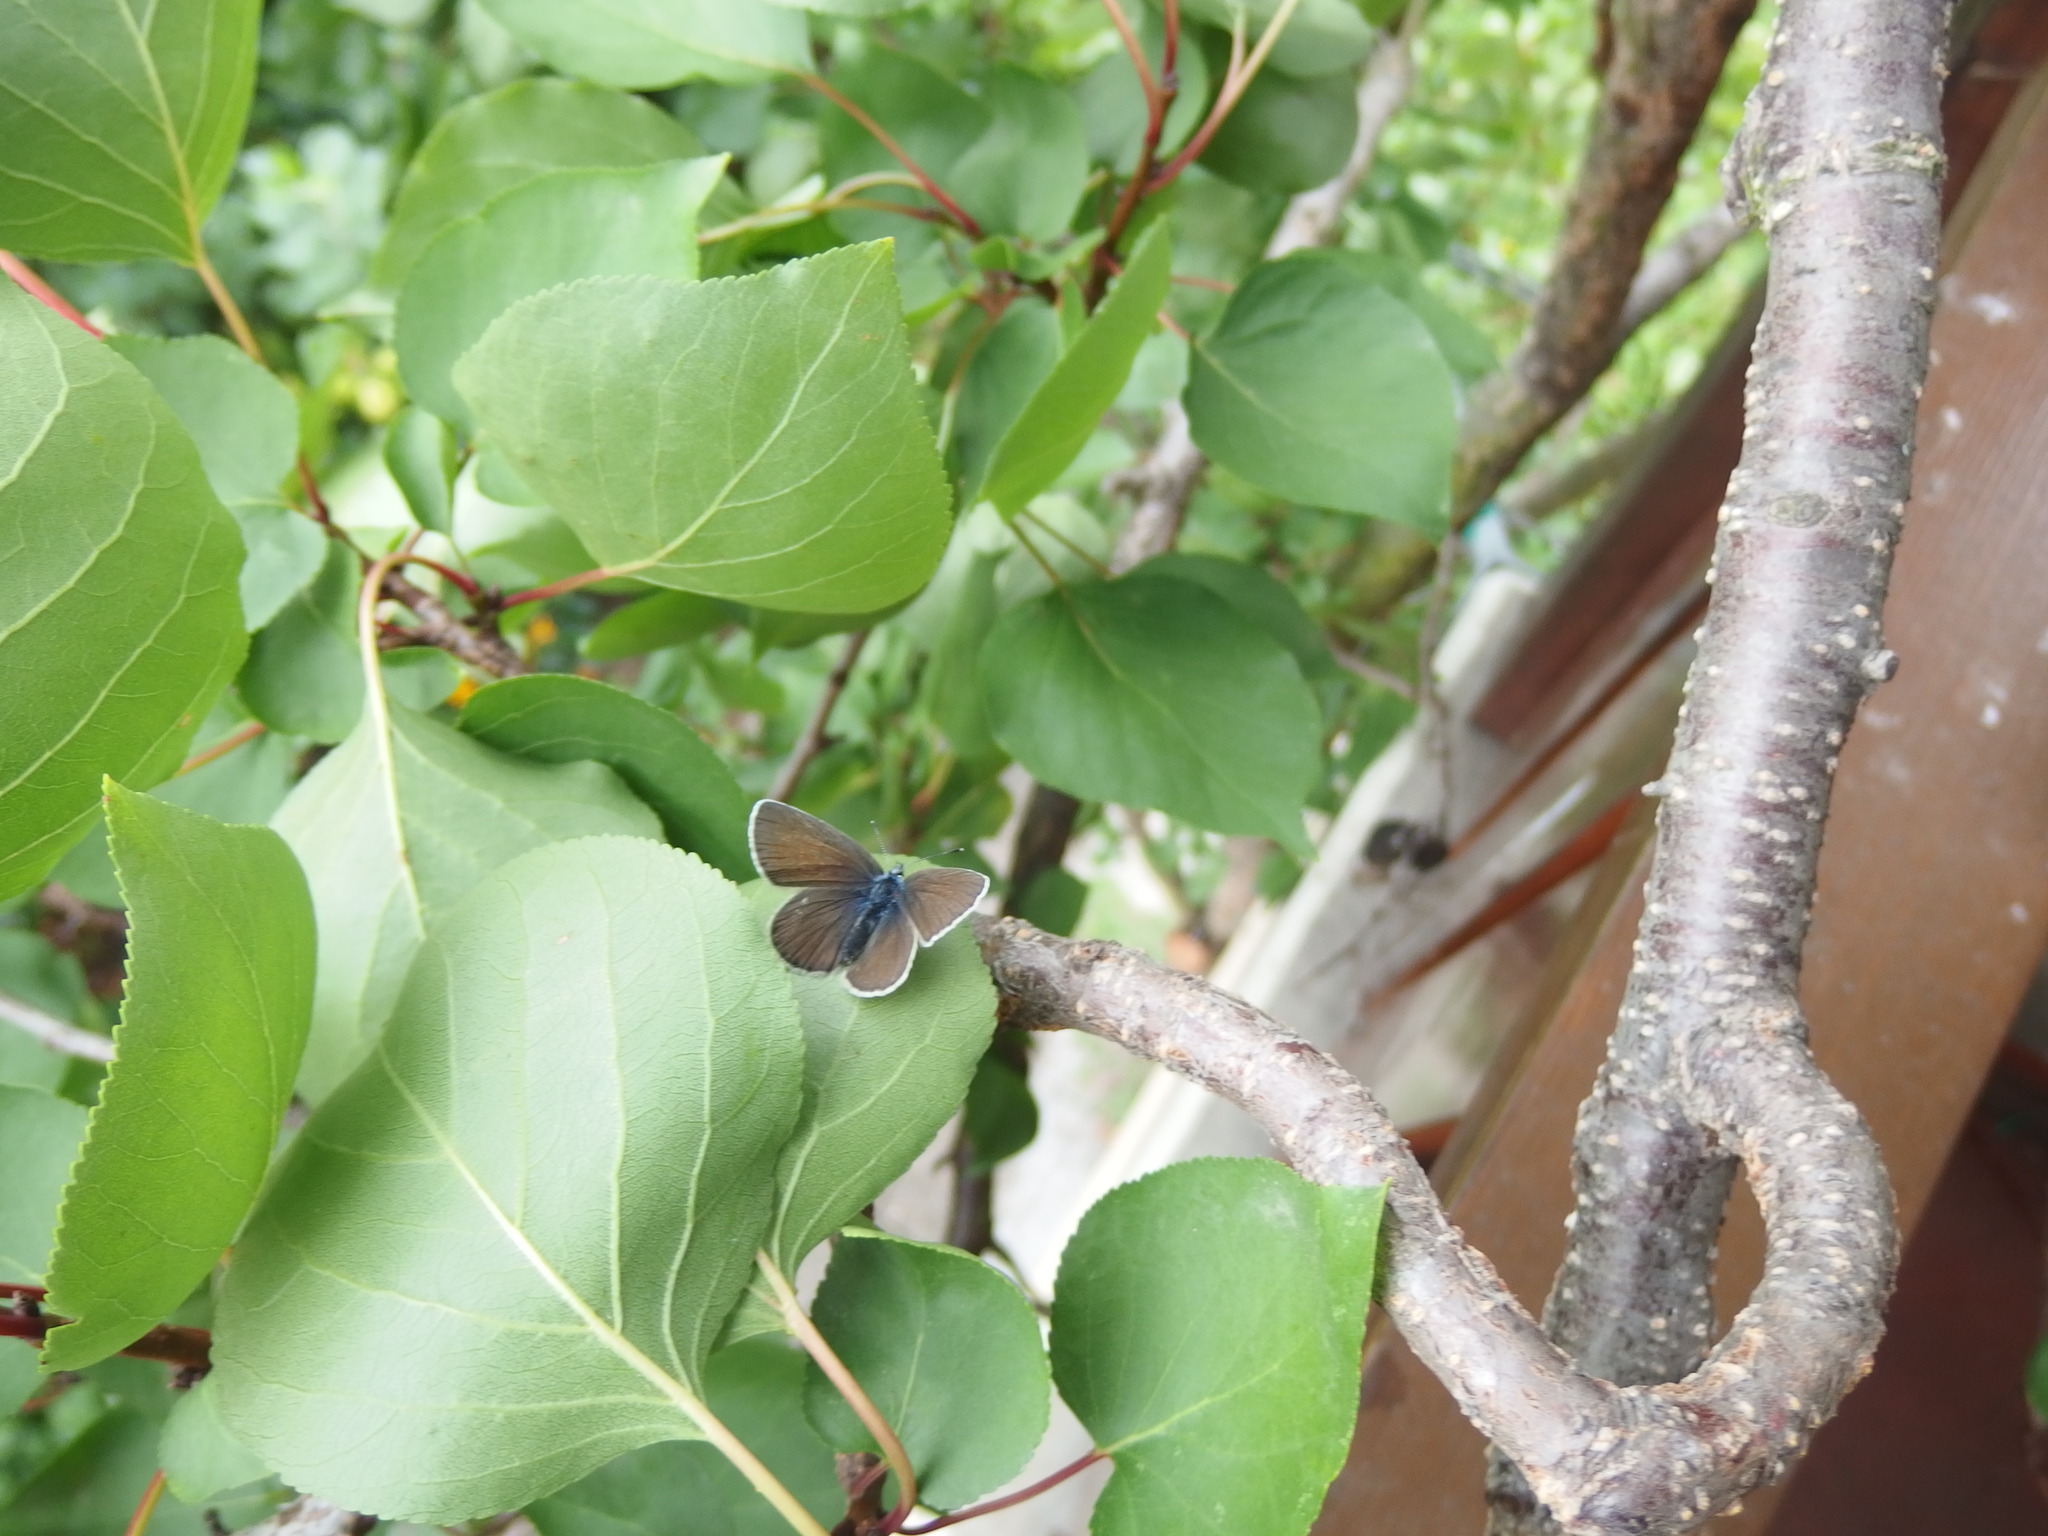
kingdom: Animalia
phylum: Arthropoda
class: Insecta
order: Lepidoptera
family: Lycaenidae
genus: Cyaniris
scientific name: Cyaniris semiargus
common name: Mazarine blue
